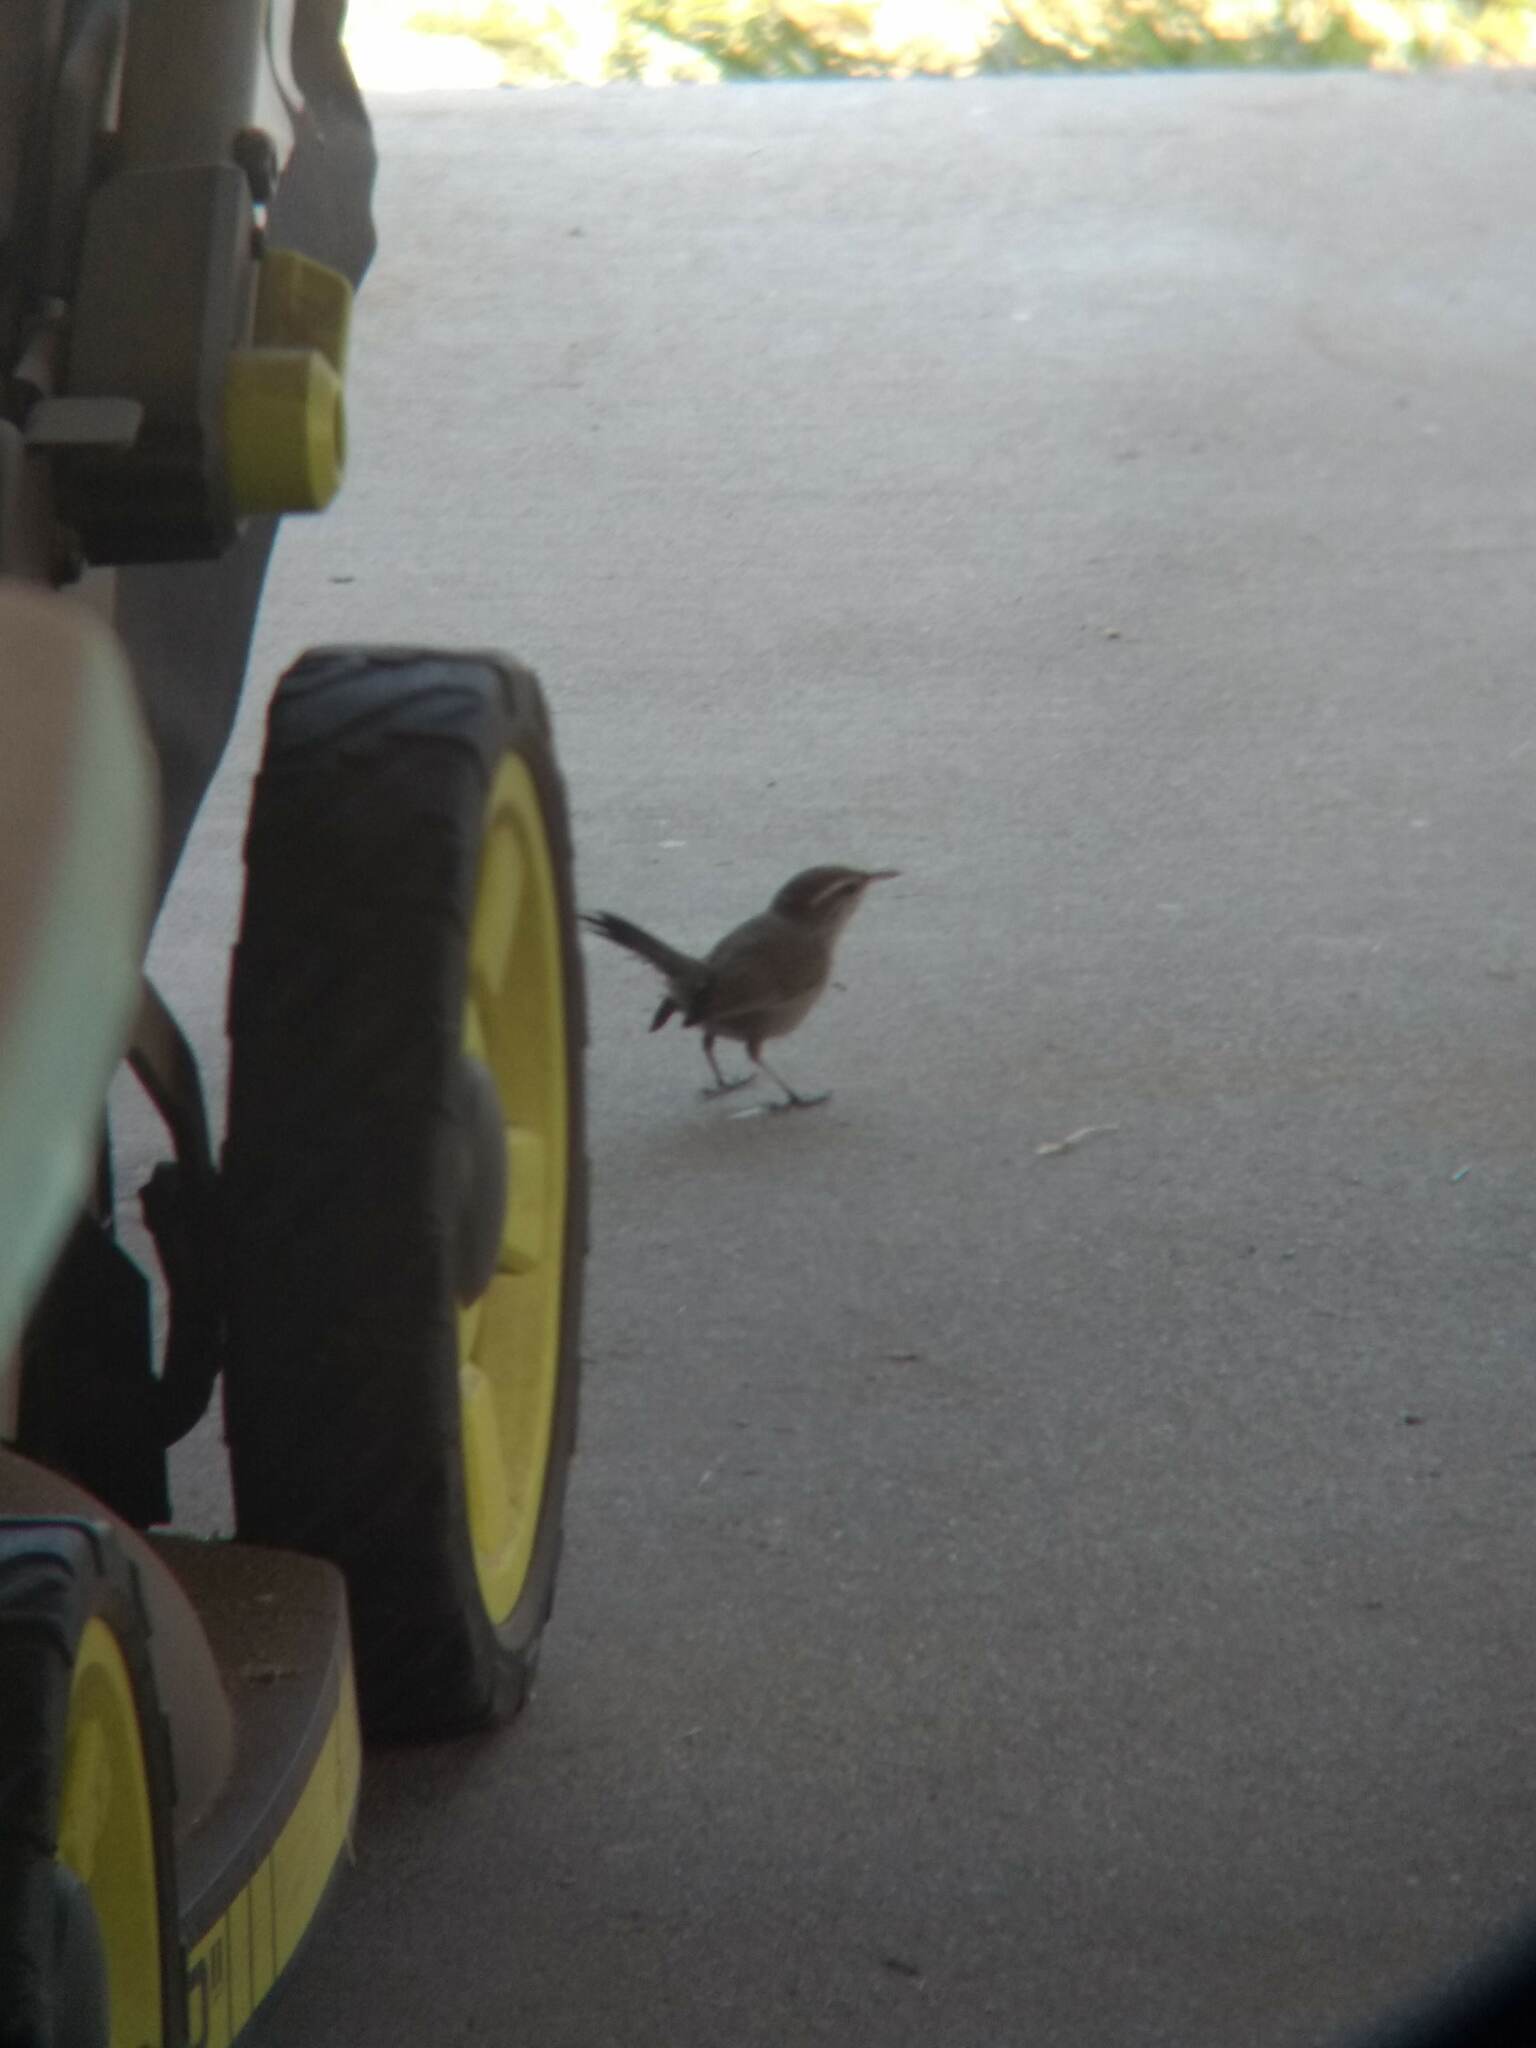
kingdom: Animalia
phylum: Chordata
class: Aves
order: Passeriformes
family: Troglodytidae
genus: Thryomanes
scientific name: Thryomanes bewickii
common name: Bewick's wren
